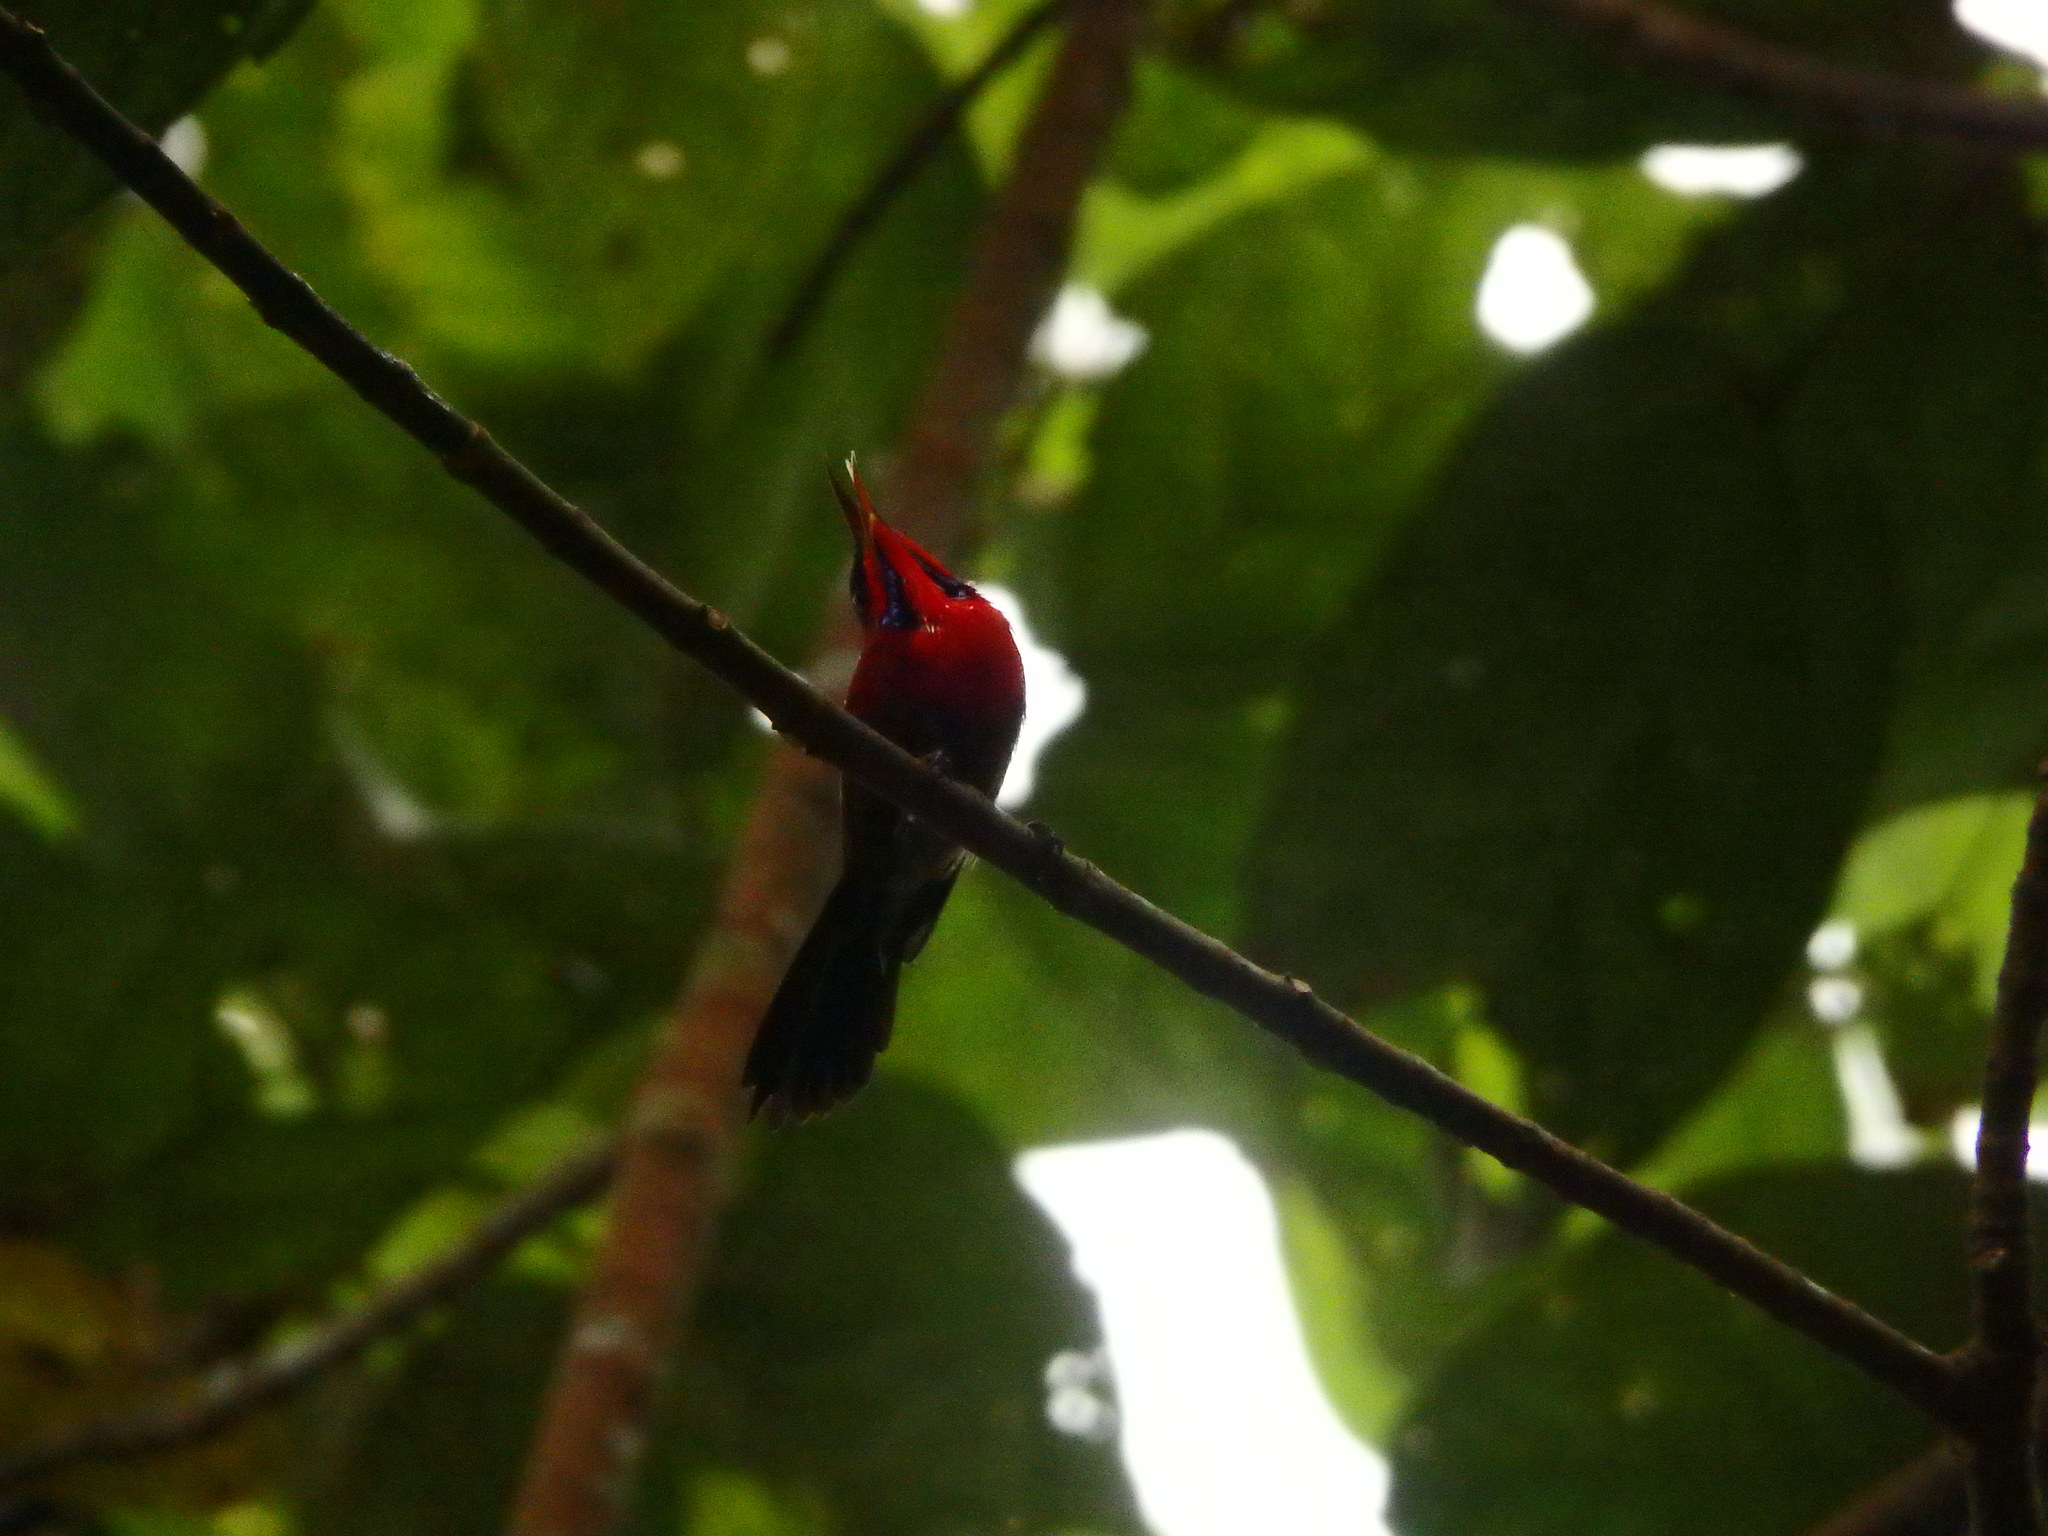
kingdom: Animalia
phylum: Chordata
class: Aves
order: Passeriformes
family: Nectariniidae
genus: Aethopyga
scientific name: Aethopyga siparaja
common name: Crimson sunbird
